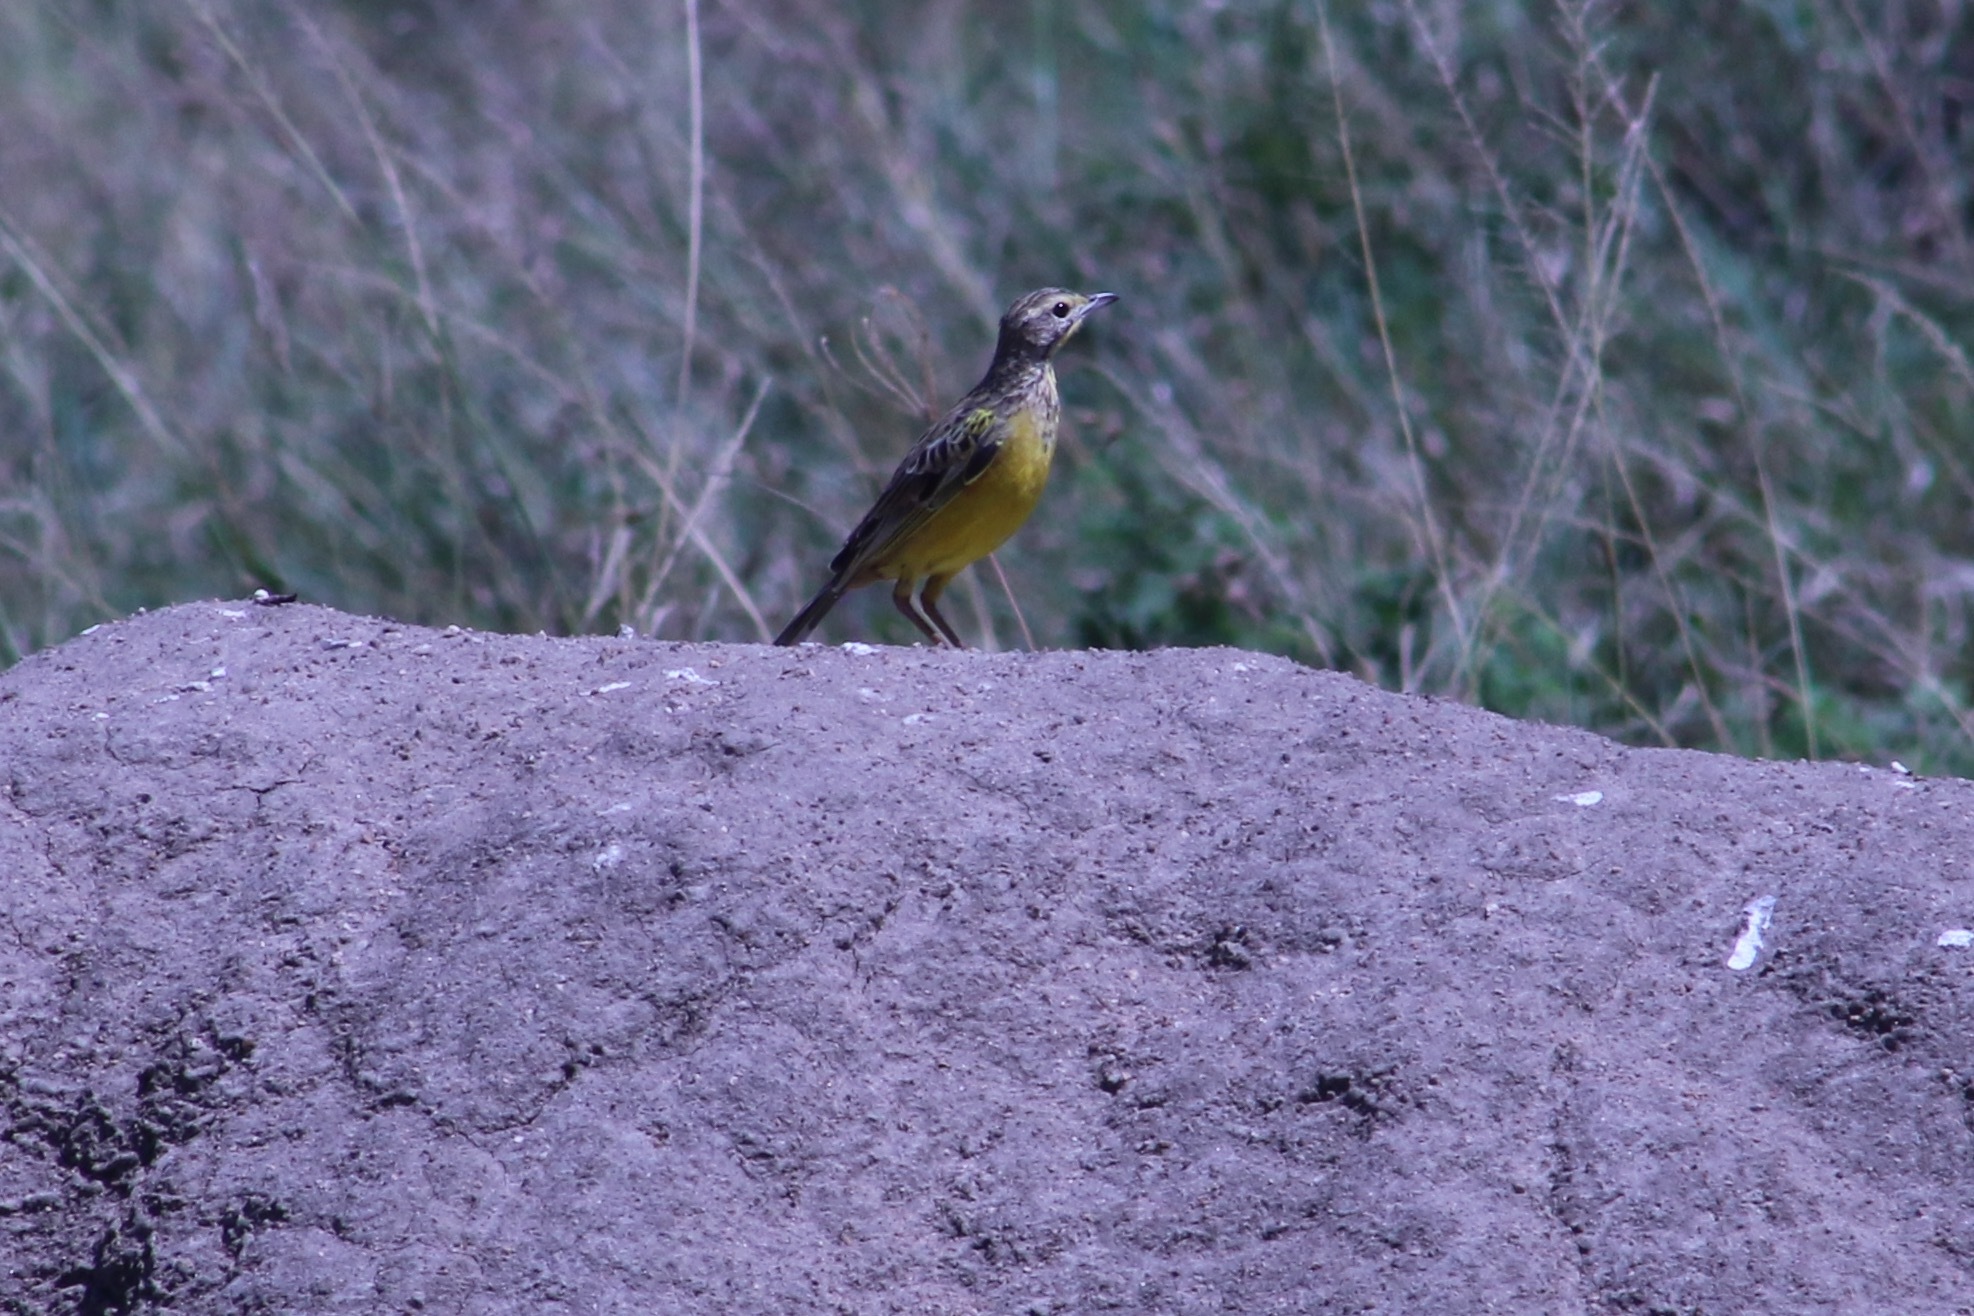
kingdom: Animalia
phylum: Chordata
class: Aves
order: Passeriformes
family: Motacillidae
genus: Macronyx
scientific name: Macronyx croceus
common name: Yellow-throated longclaw
